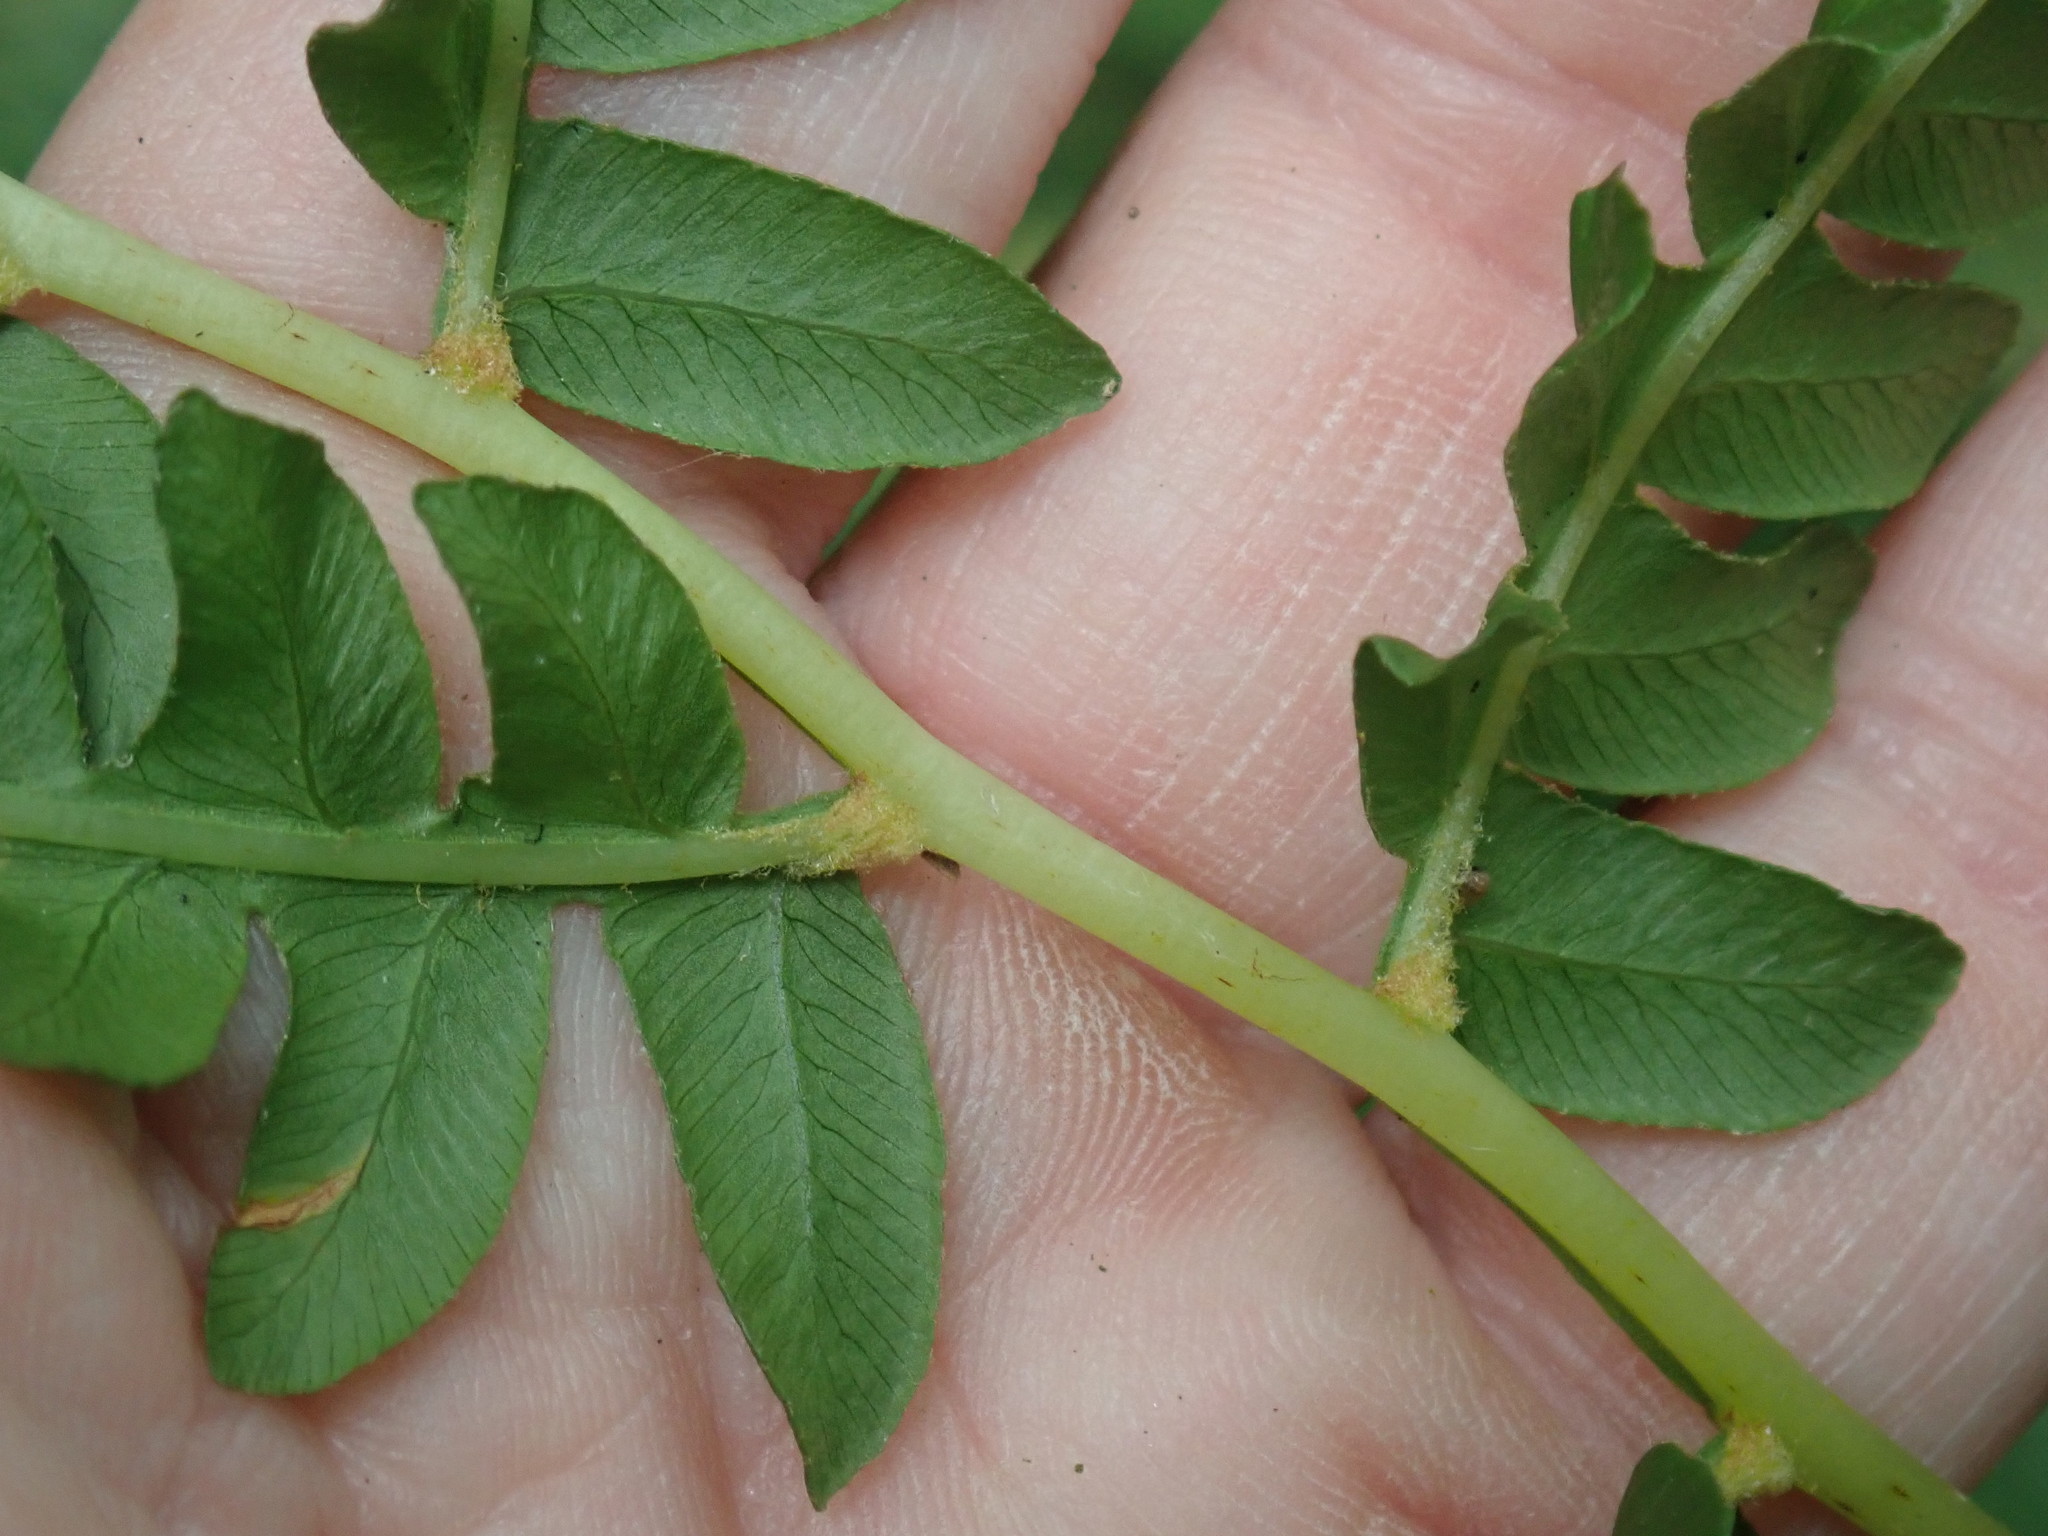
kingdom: Plantae
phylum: Tracheophyta
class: Polypodiopsida
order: Osmundales
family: Osmundaceae
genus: Osmundastrum
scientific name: Osmundastrum cinnamomeum
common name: Cinnamon fern
